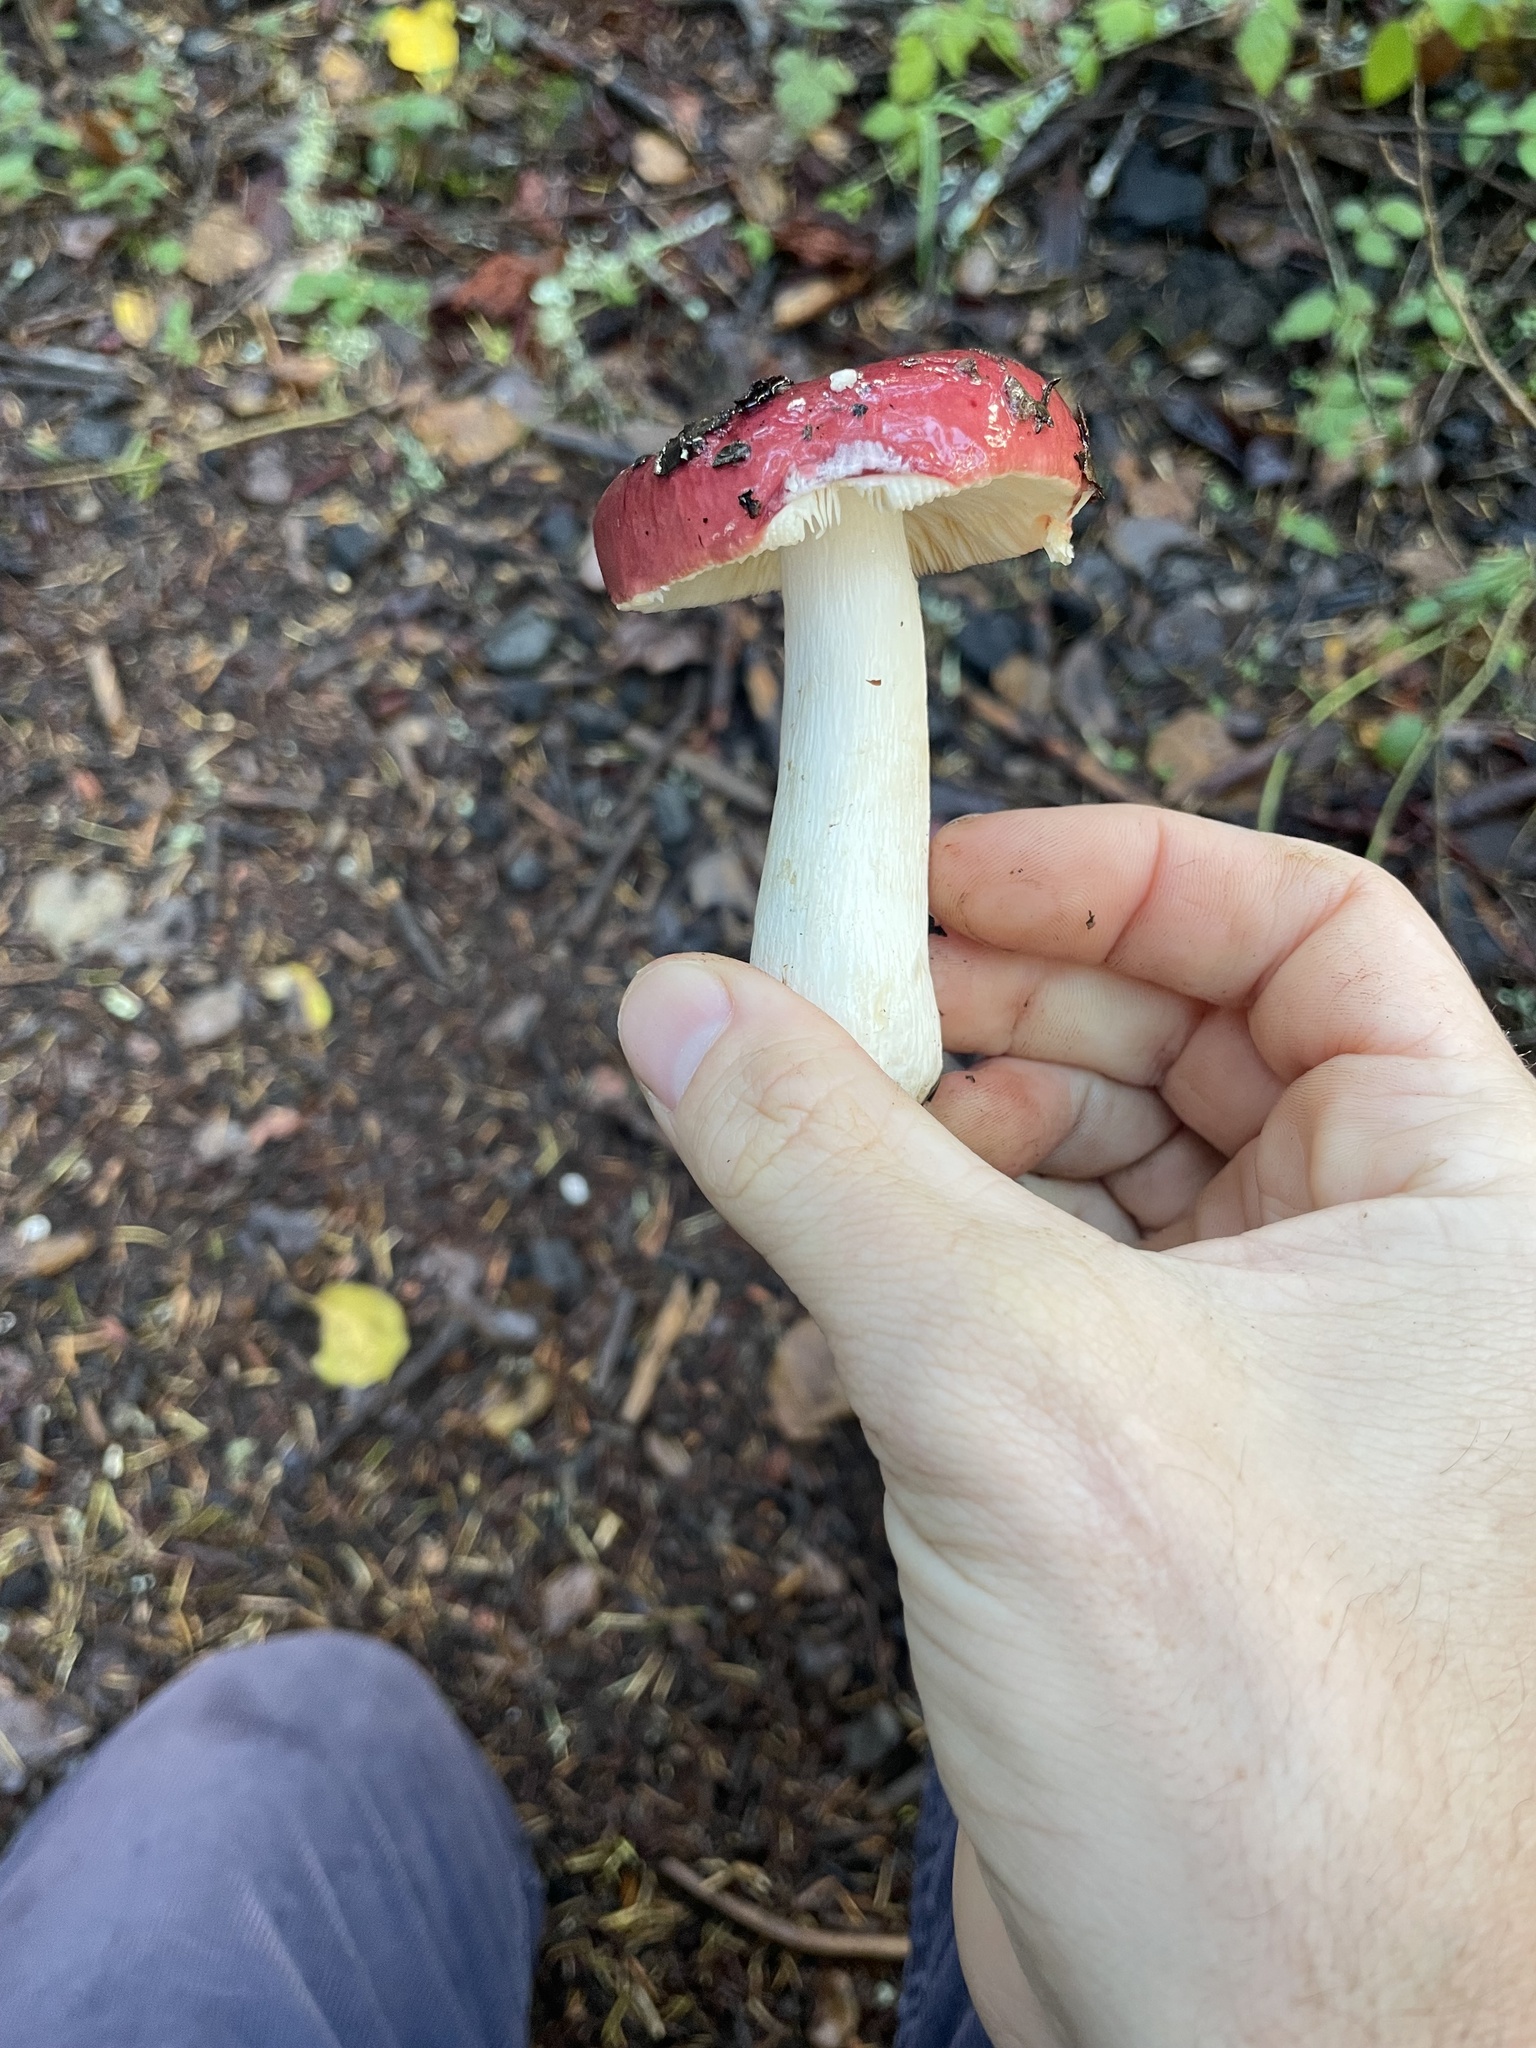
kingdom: Fungi
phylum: Basidiomycota
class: Agaricomycetes
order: Russulales
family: Russulaceae
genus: Russula
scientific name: Russula
